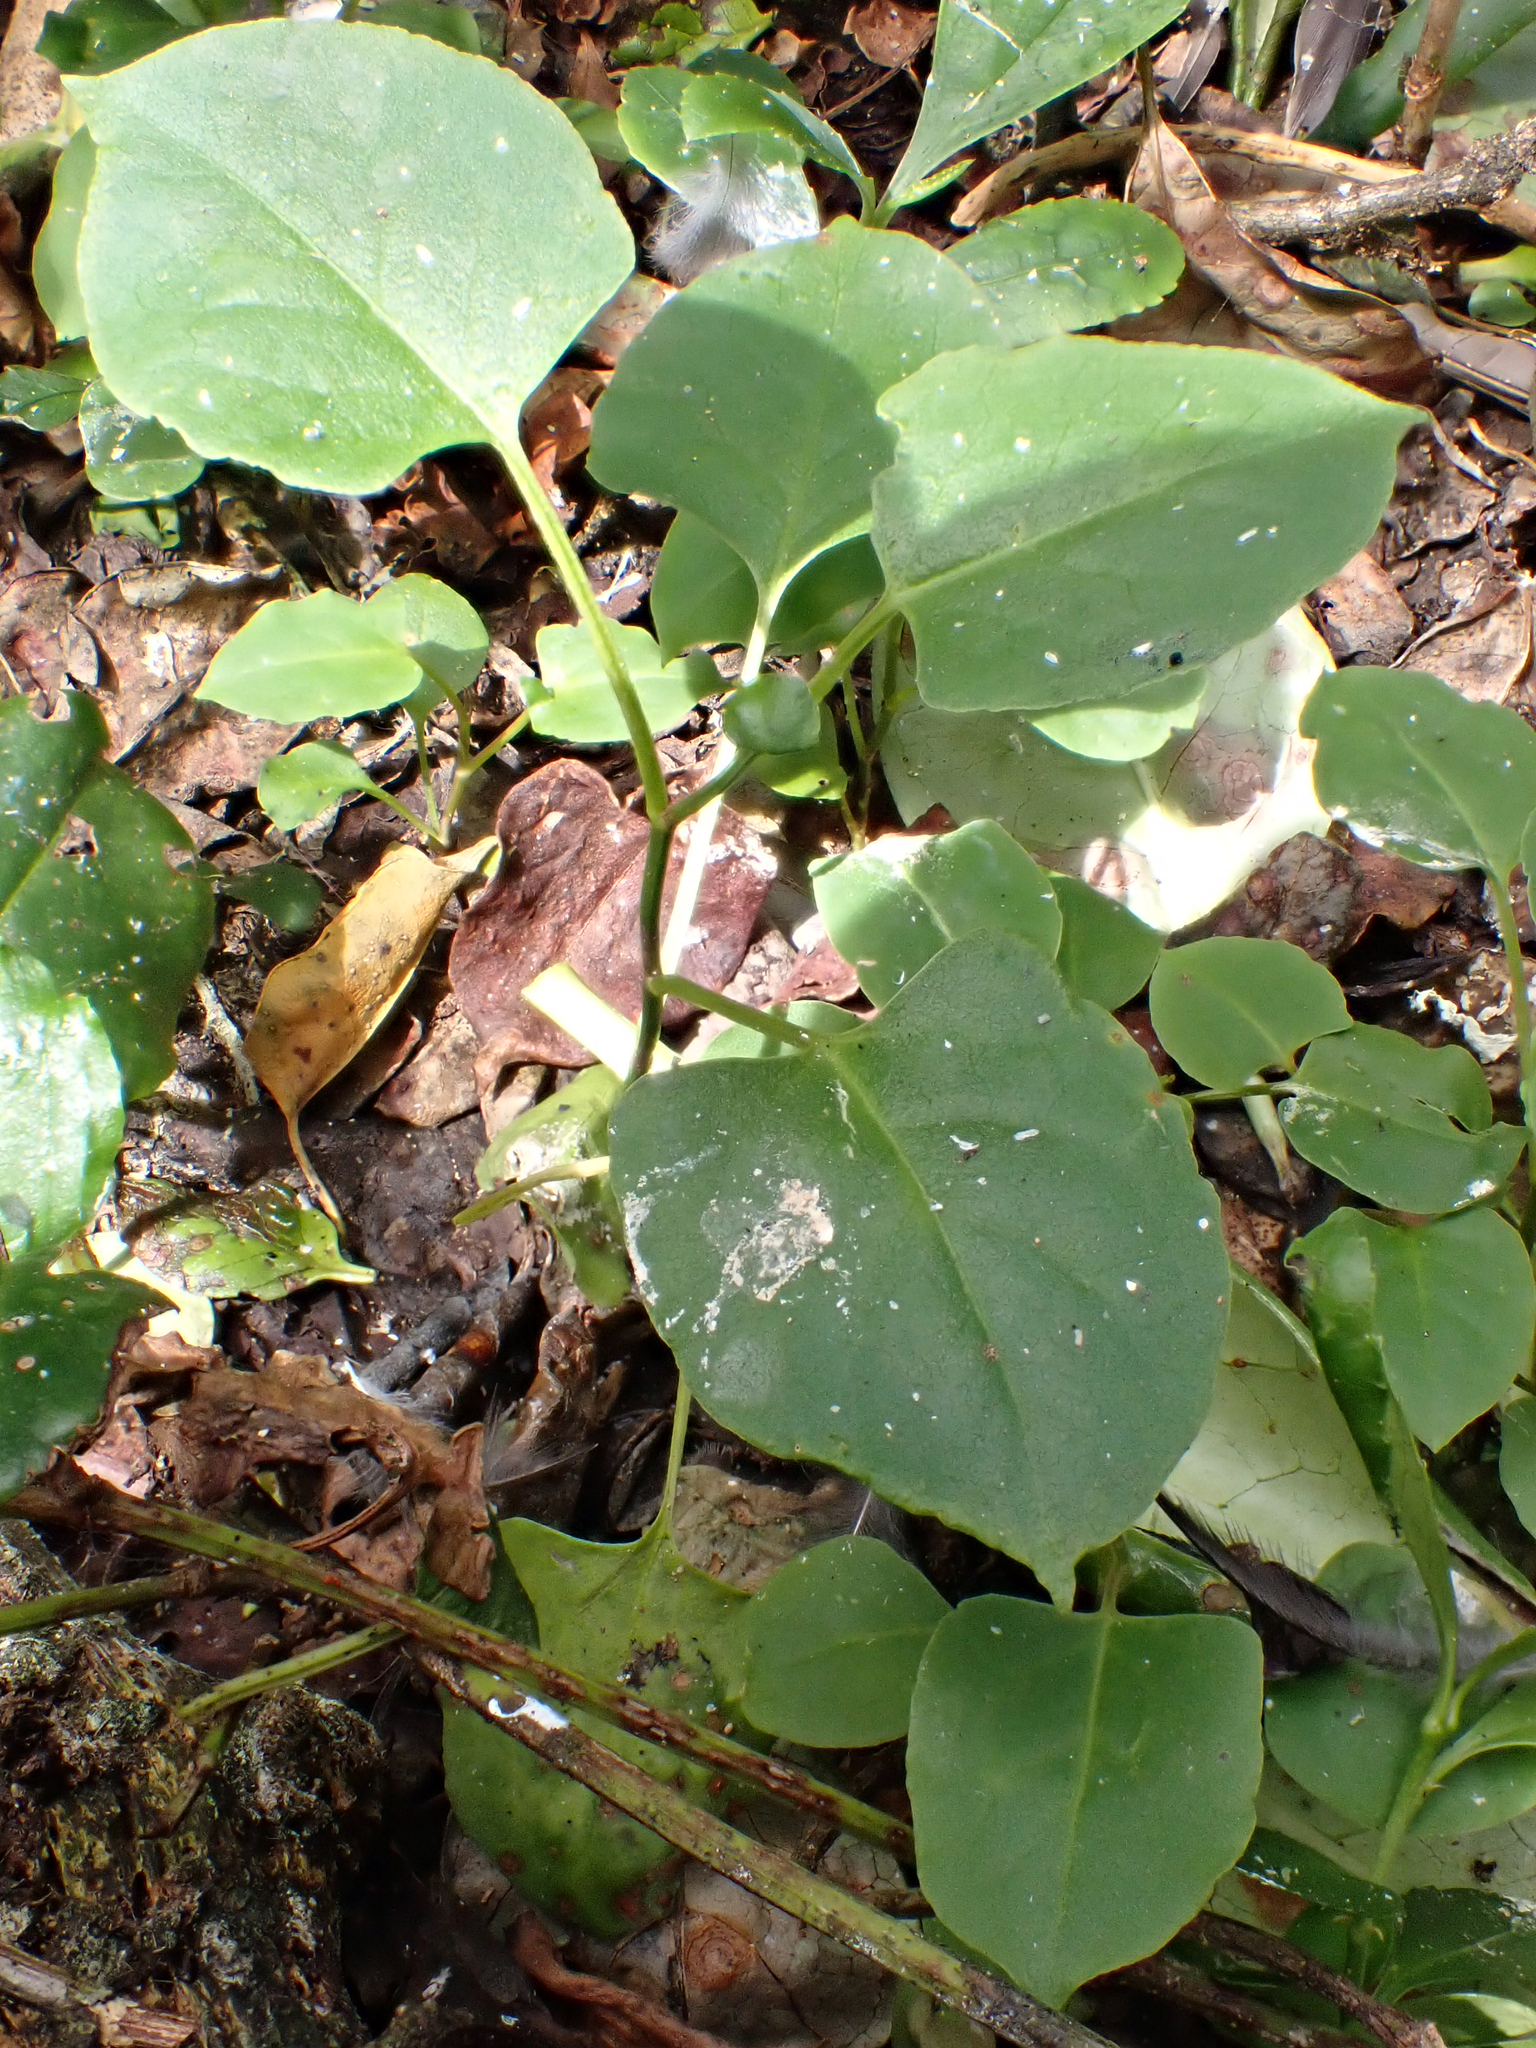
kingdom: Plantae
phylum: Tracheophyta
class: Magnoliopsida
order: Caryophyllales
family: Polygonaceae
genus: Muehlenbeckia
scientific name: Muehlenbeckia australis
